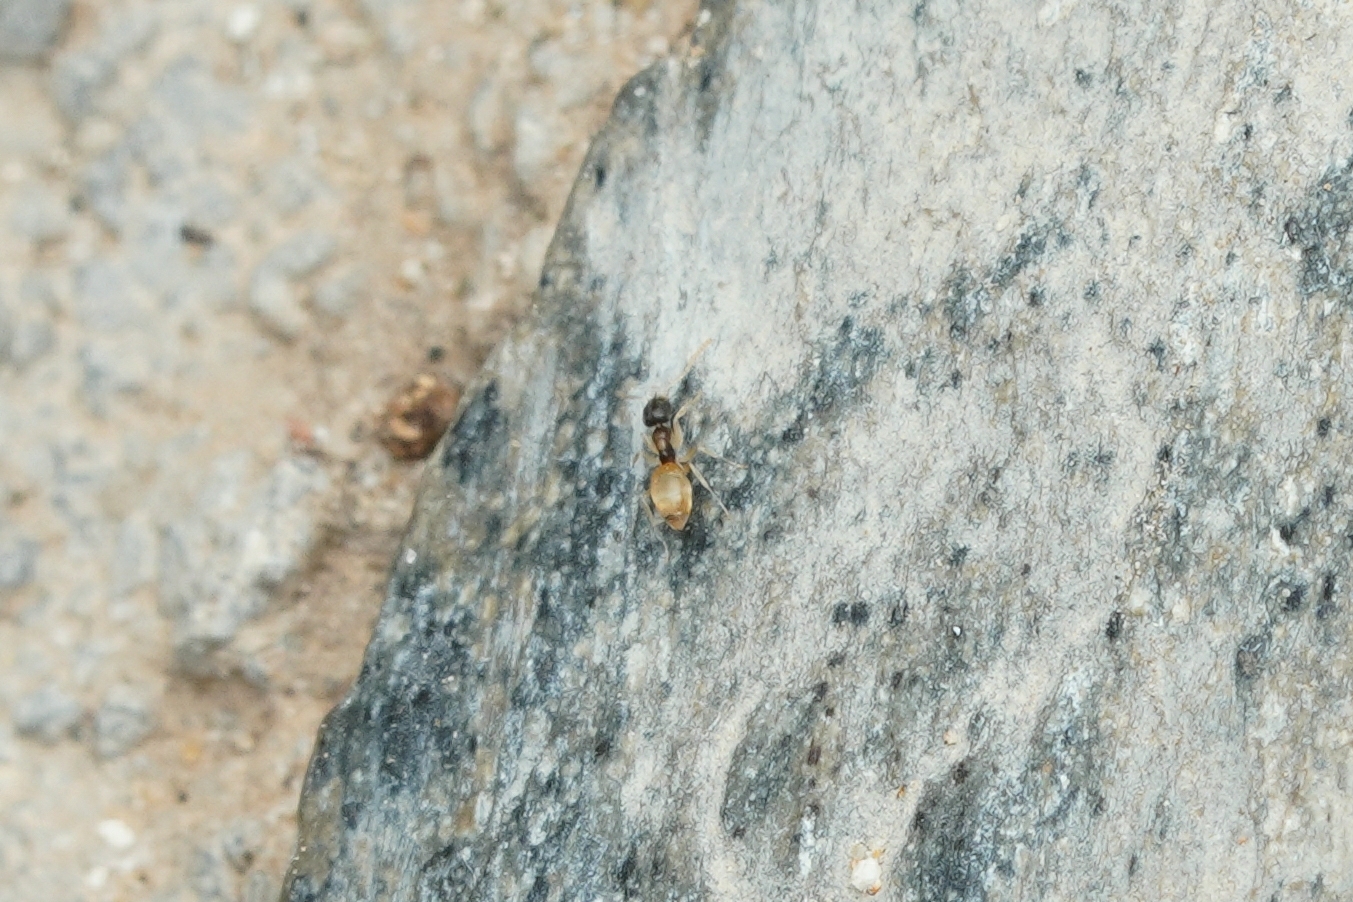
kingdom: Animalia
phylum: Arthropoda
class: Insecta
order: Hymenoptera
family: Formicidae
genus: Tapinoma
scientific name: Tapinoma melanocephalum
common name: Ghost ant
